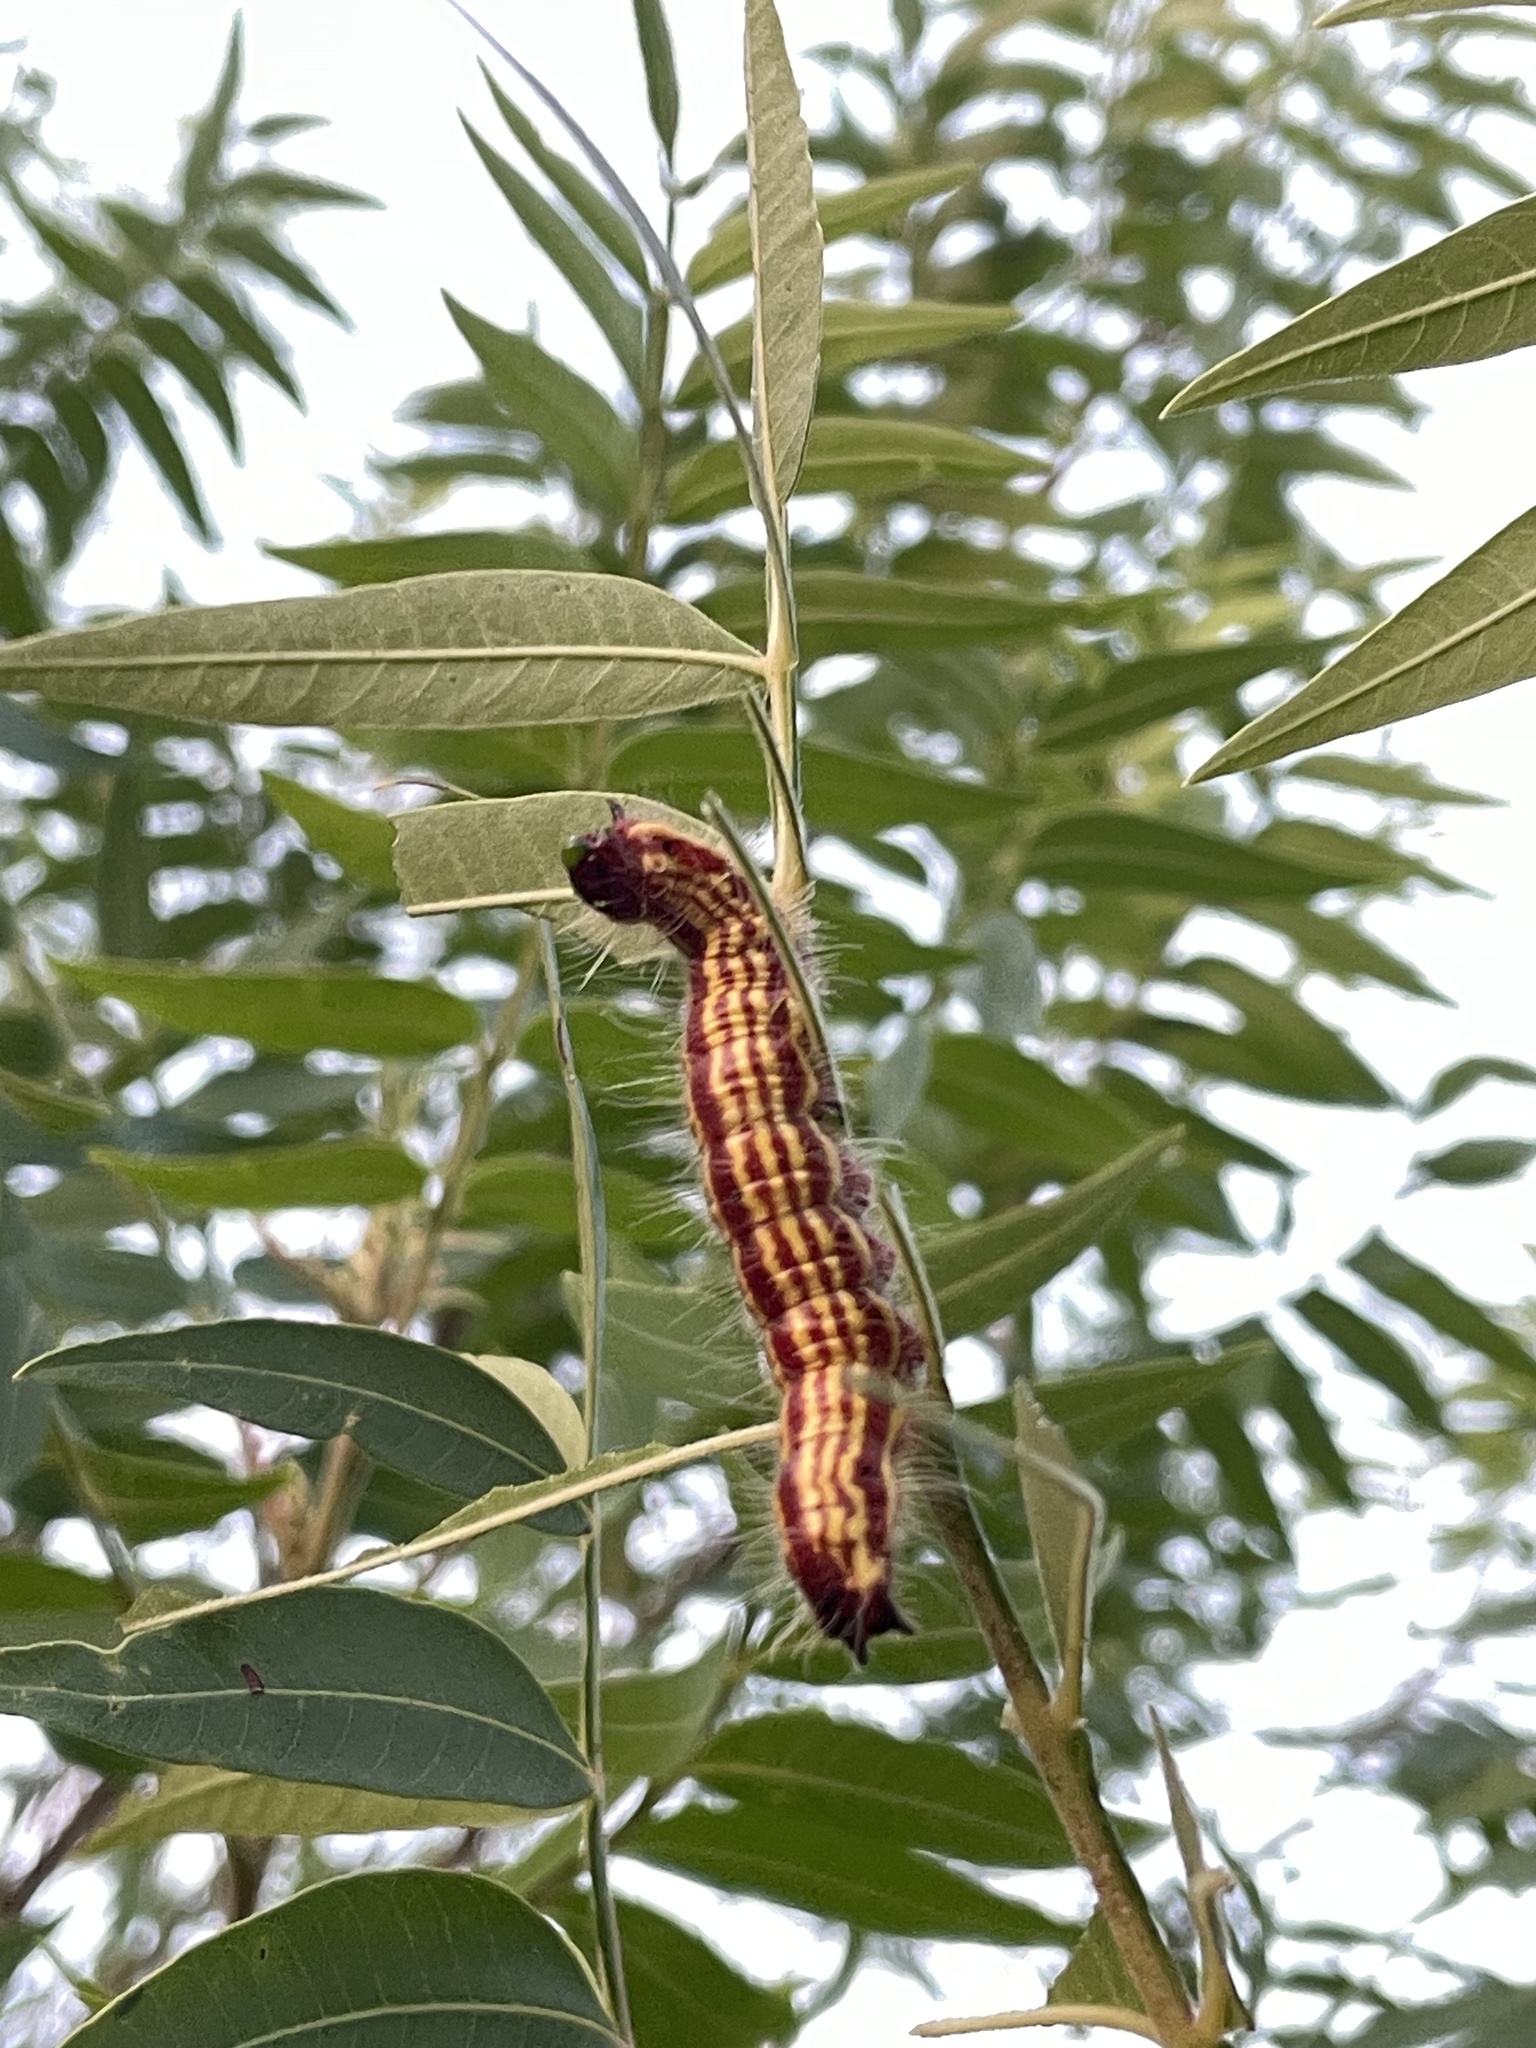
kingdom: Animalia
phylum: Arthropoda
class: Insecta
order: Lepidoptera
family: Notodontidae
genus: Datana
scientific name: Datana perspicua
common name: Spotted datana
